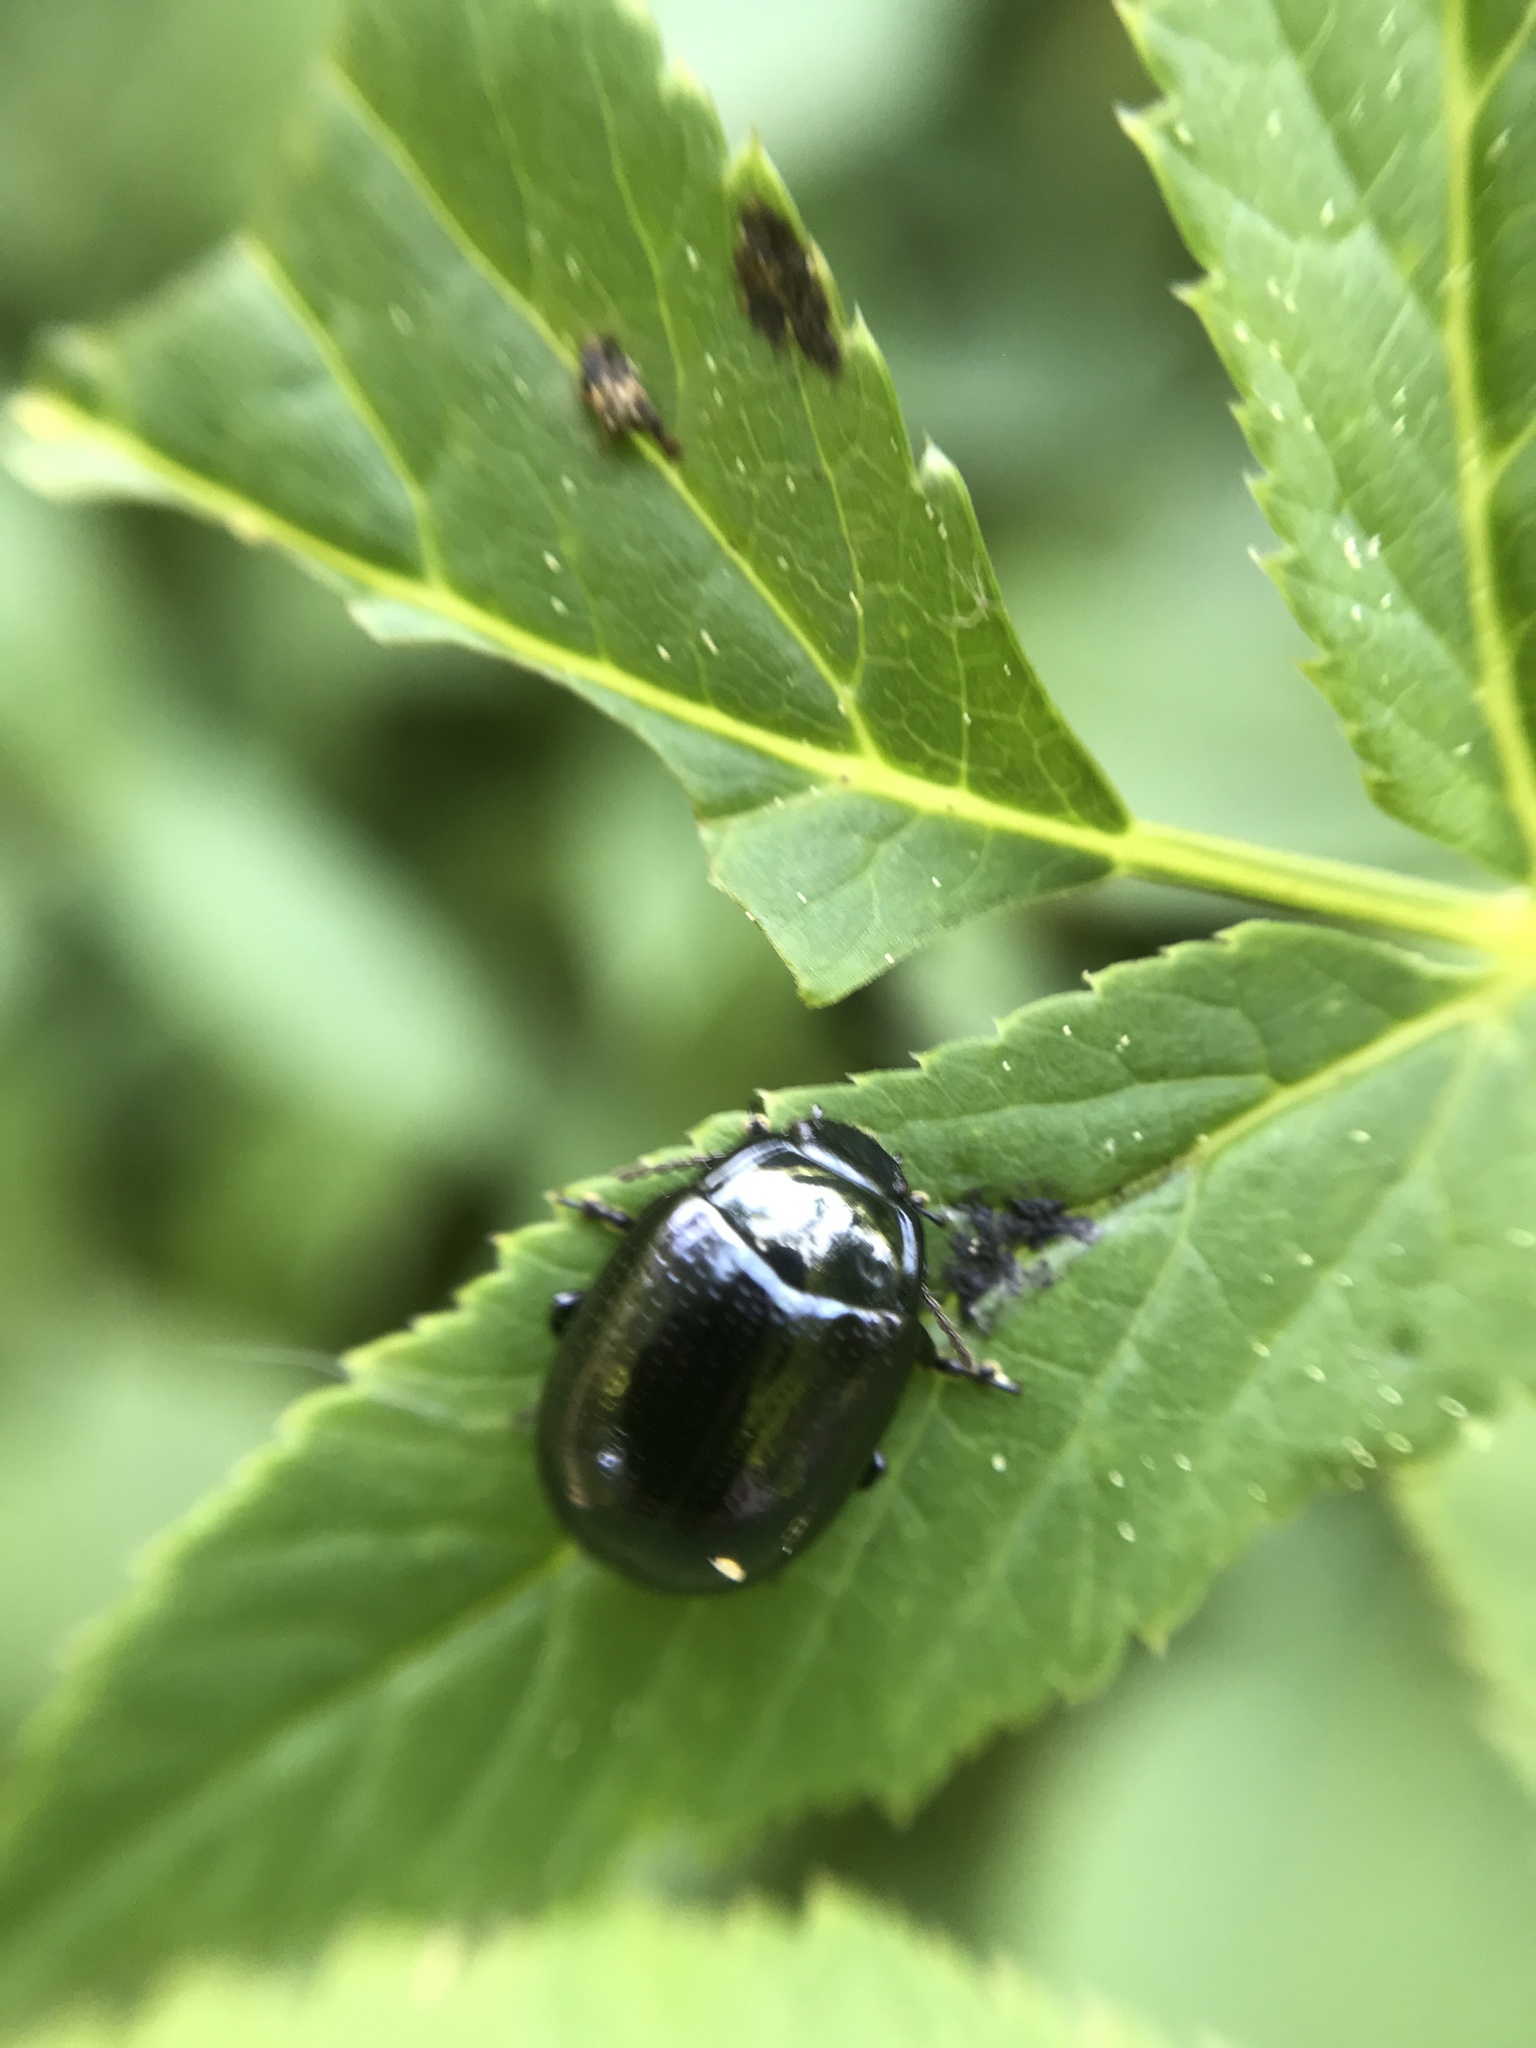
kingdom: Animalia
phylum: Arthropoda
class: Insecta
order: Coleoptera
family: Chrysomelidae
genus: Chrysolina
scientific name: Chrysolina oricalcia
